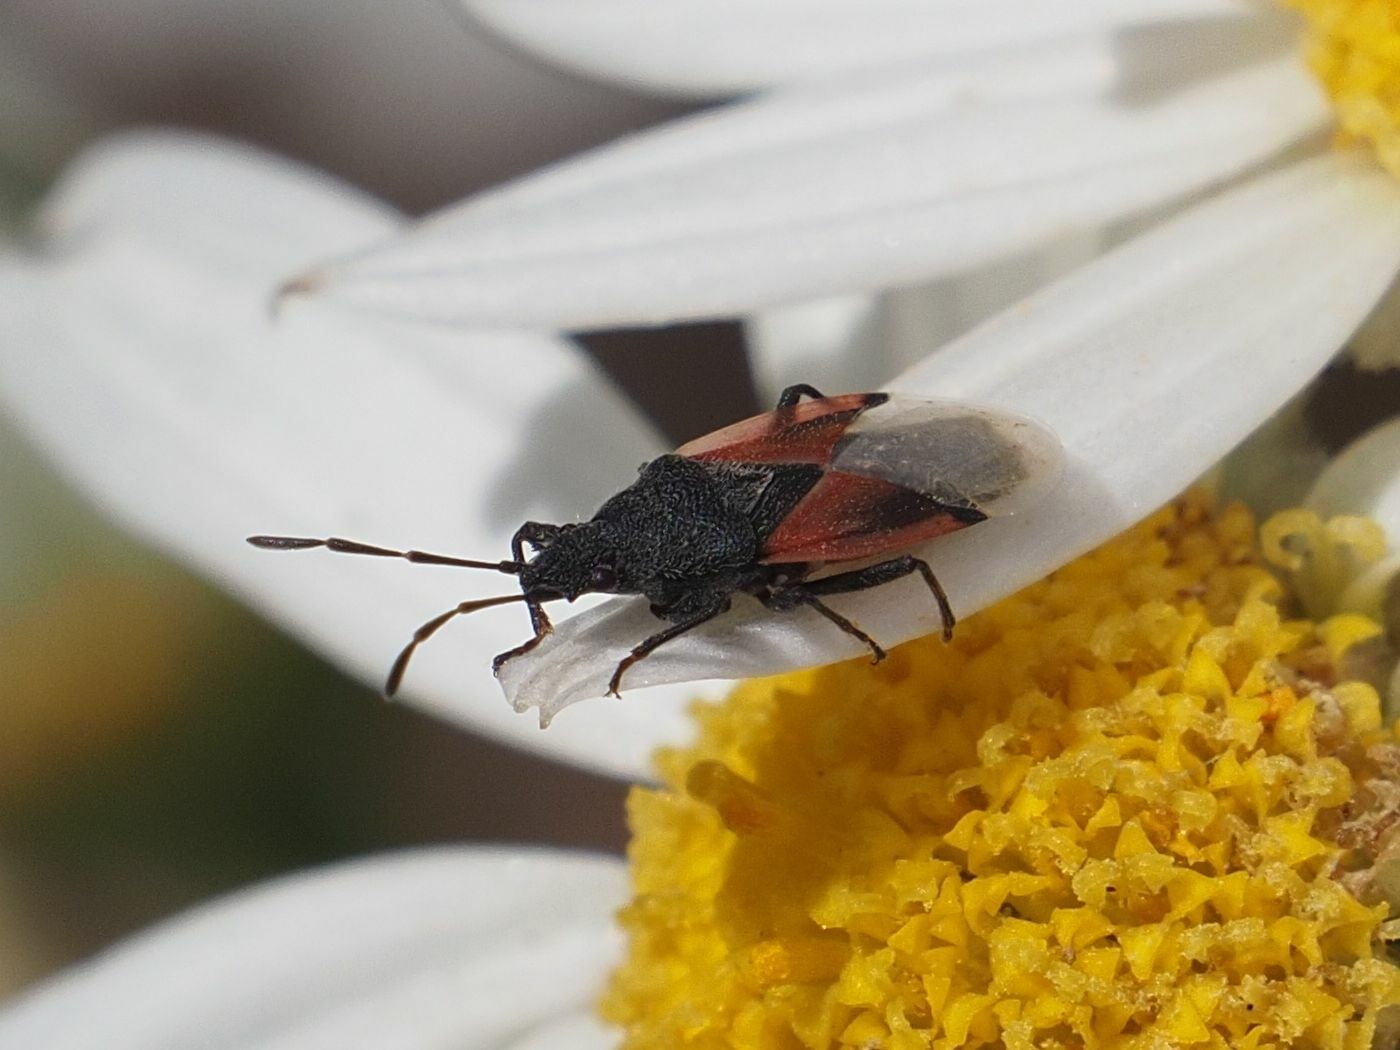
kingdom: Animalia
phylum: Arthropoda
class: Insecta
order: Hemiptera
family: Oxycarenidae
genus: Oxycarenus
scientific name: Oxycarenus lavaterae
